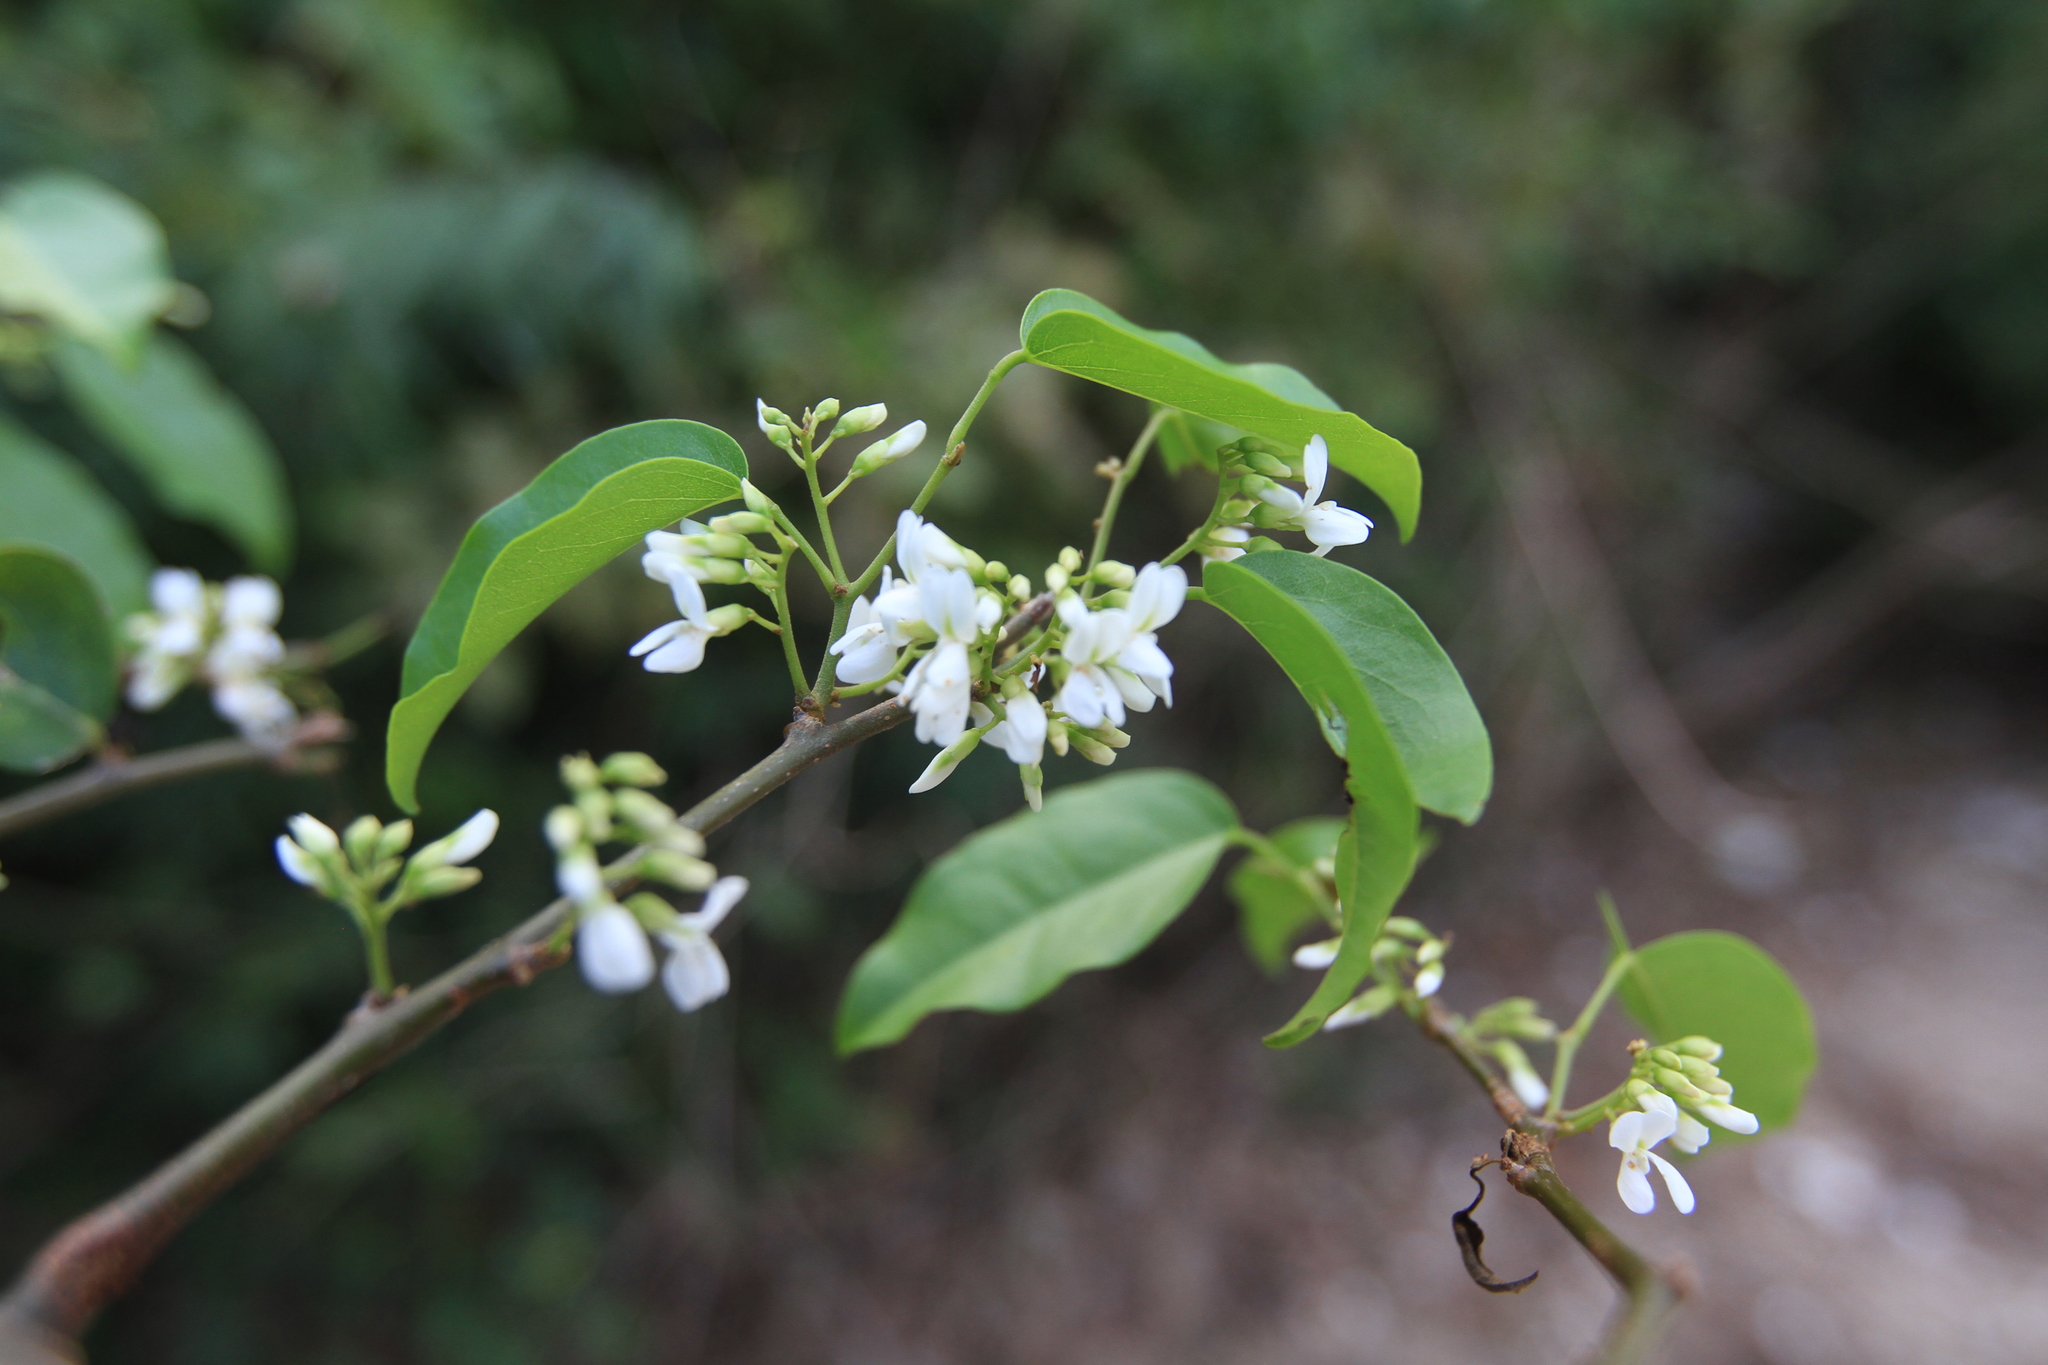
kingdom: Plantae
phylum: Tracheophyta
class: Magnoliopsida
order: Fabales
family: Fabaceae
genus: Dalbergia
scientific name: Dalbergia brownei
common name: Brown's indian rosewood
